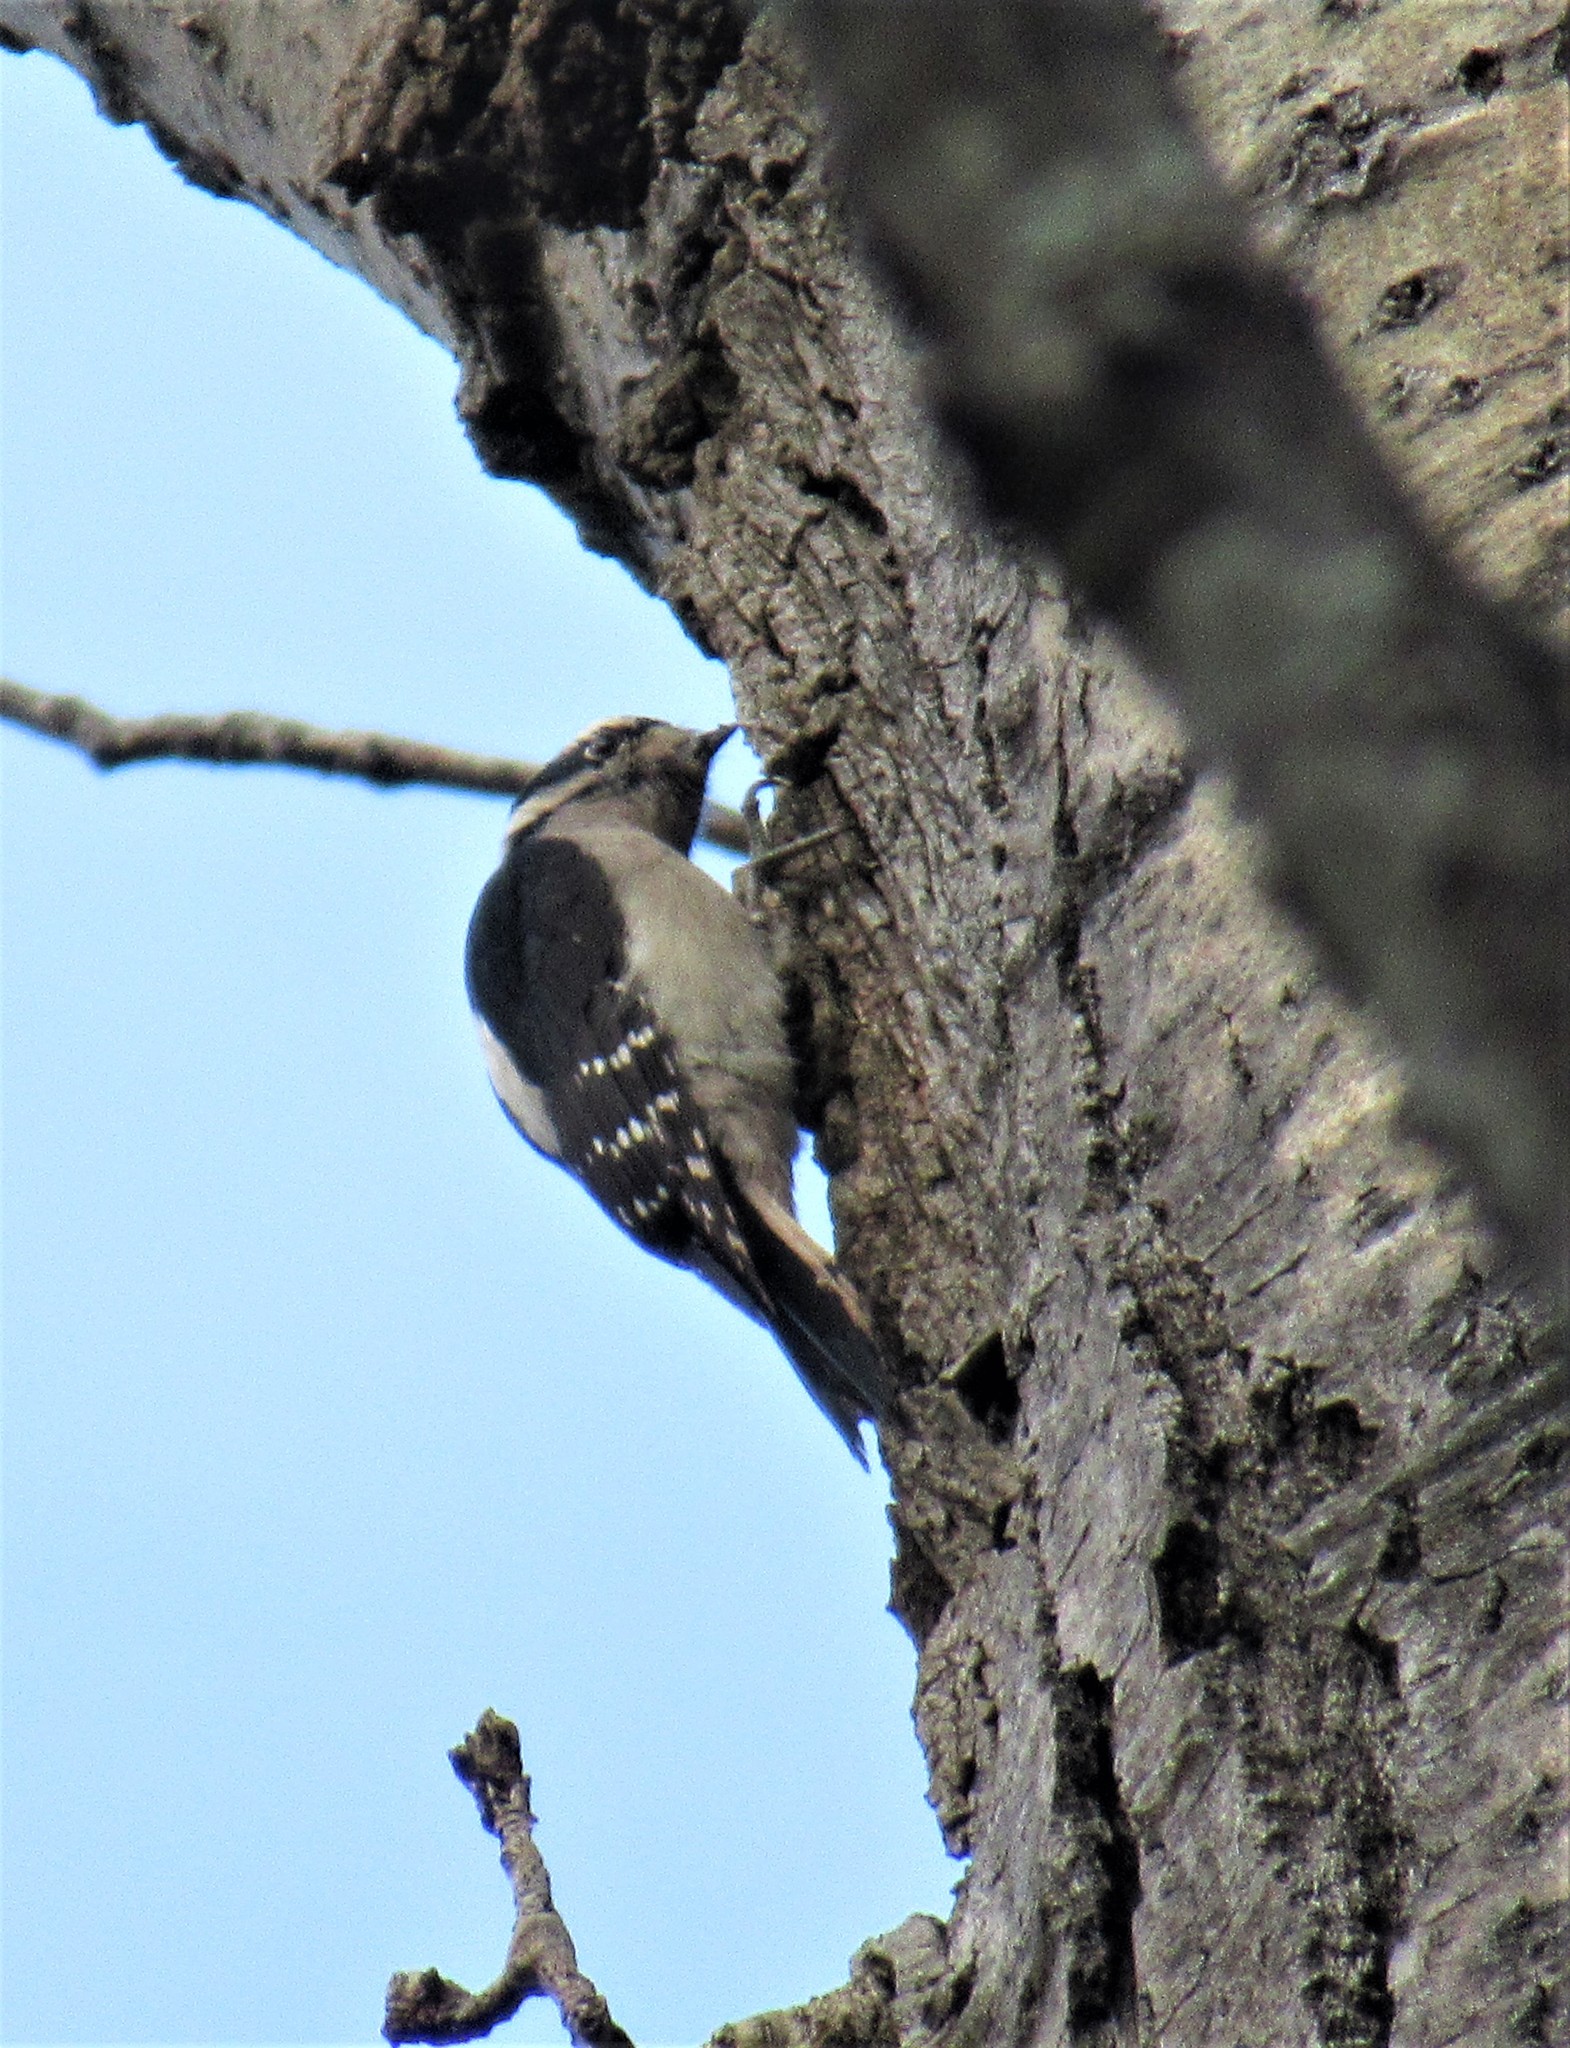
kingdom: Animalia
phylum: Chordata
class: Aves
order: Piciformes
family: Picidae
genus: Dryobates
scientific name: Dryobates pubescens
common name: Downy woodpecker
